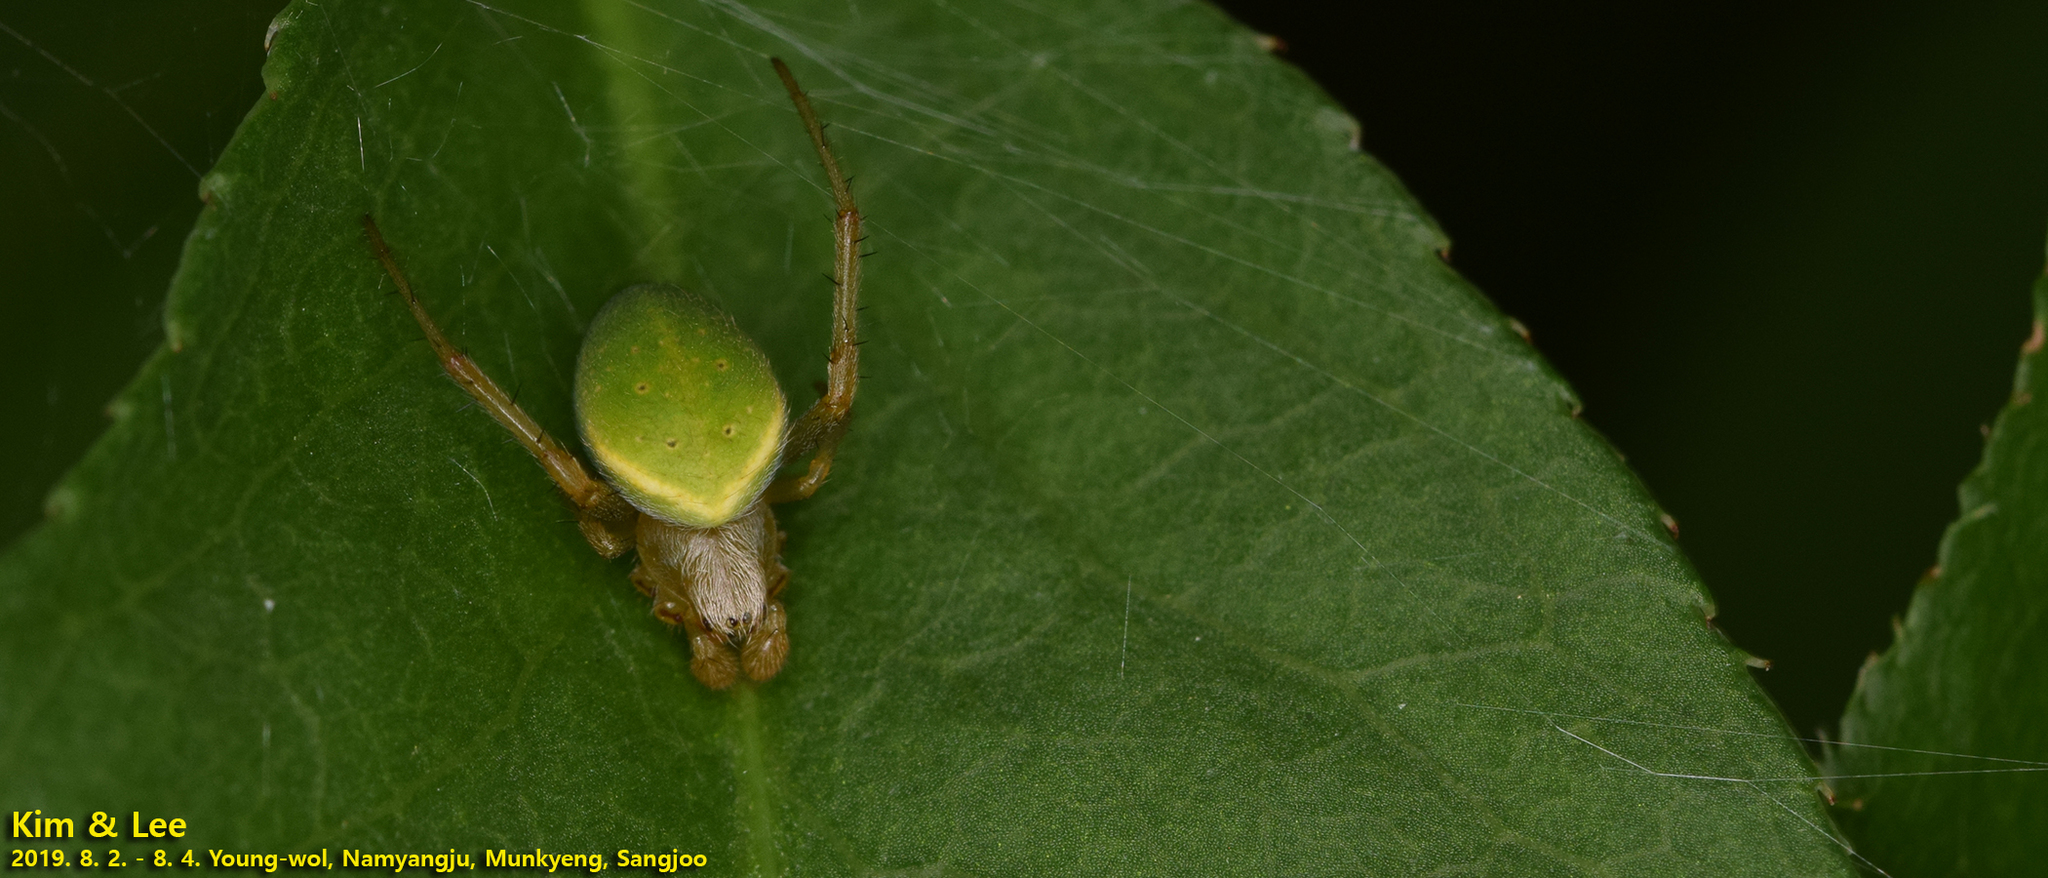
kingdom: Animalia
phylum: Arthropoda
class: Arachnida
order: Araneae
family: Araneidae
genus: Neoscona
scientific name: Neoscona scylloides
